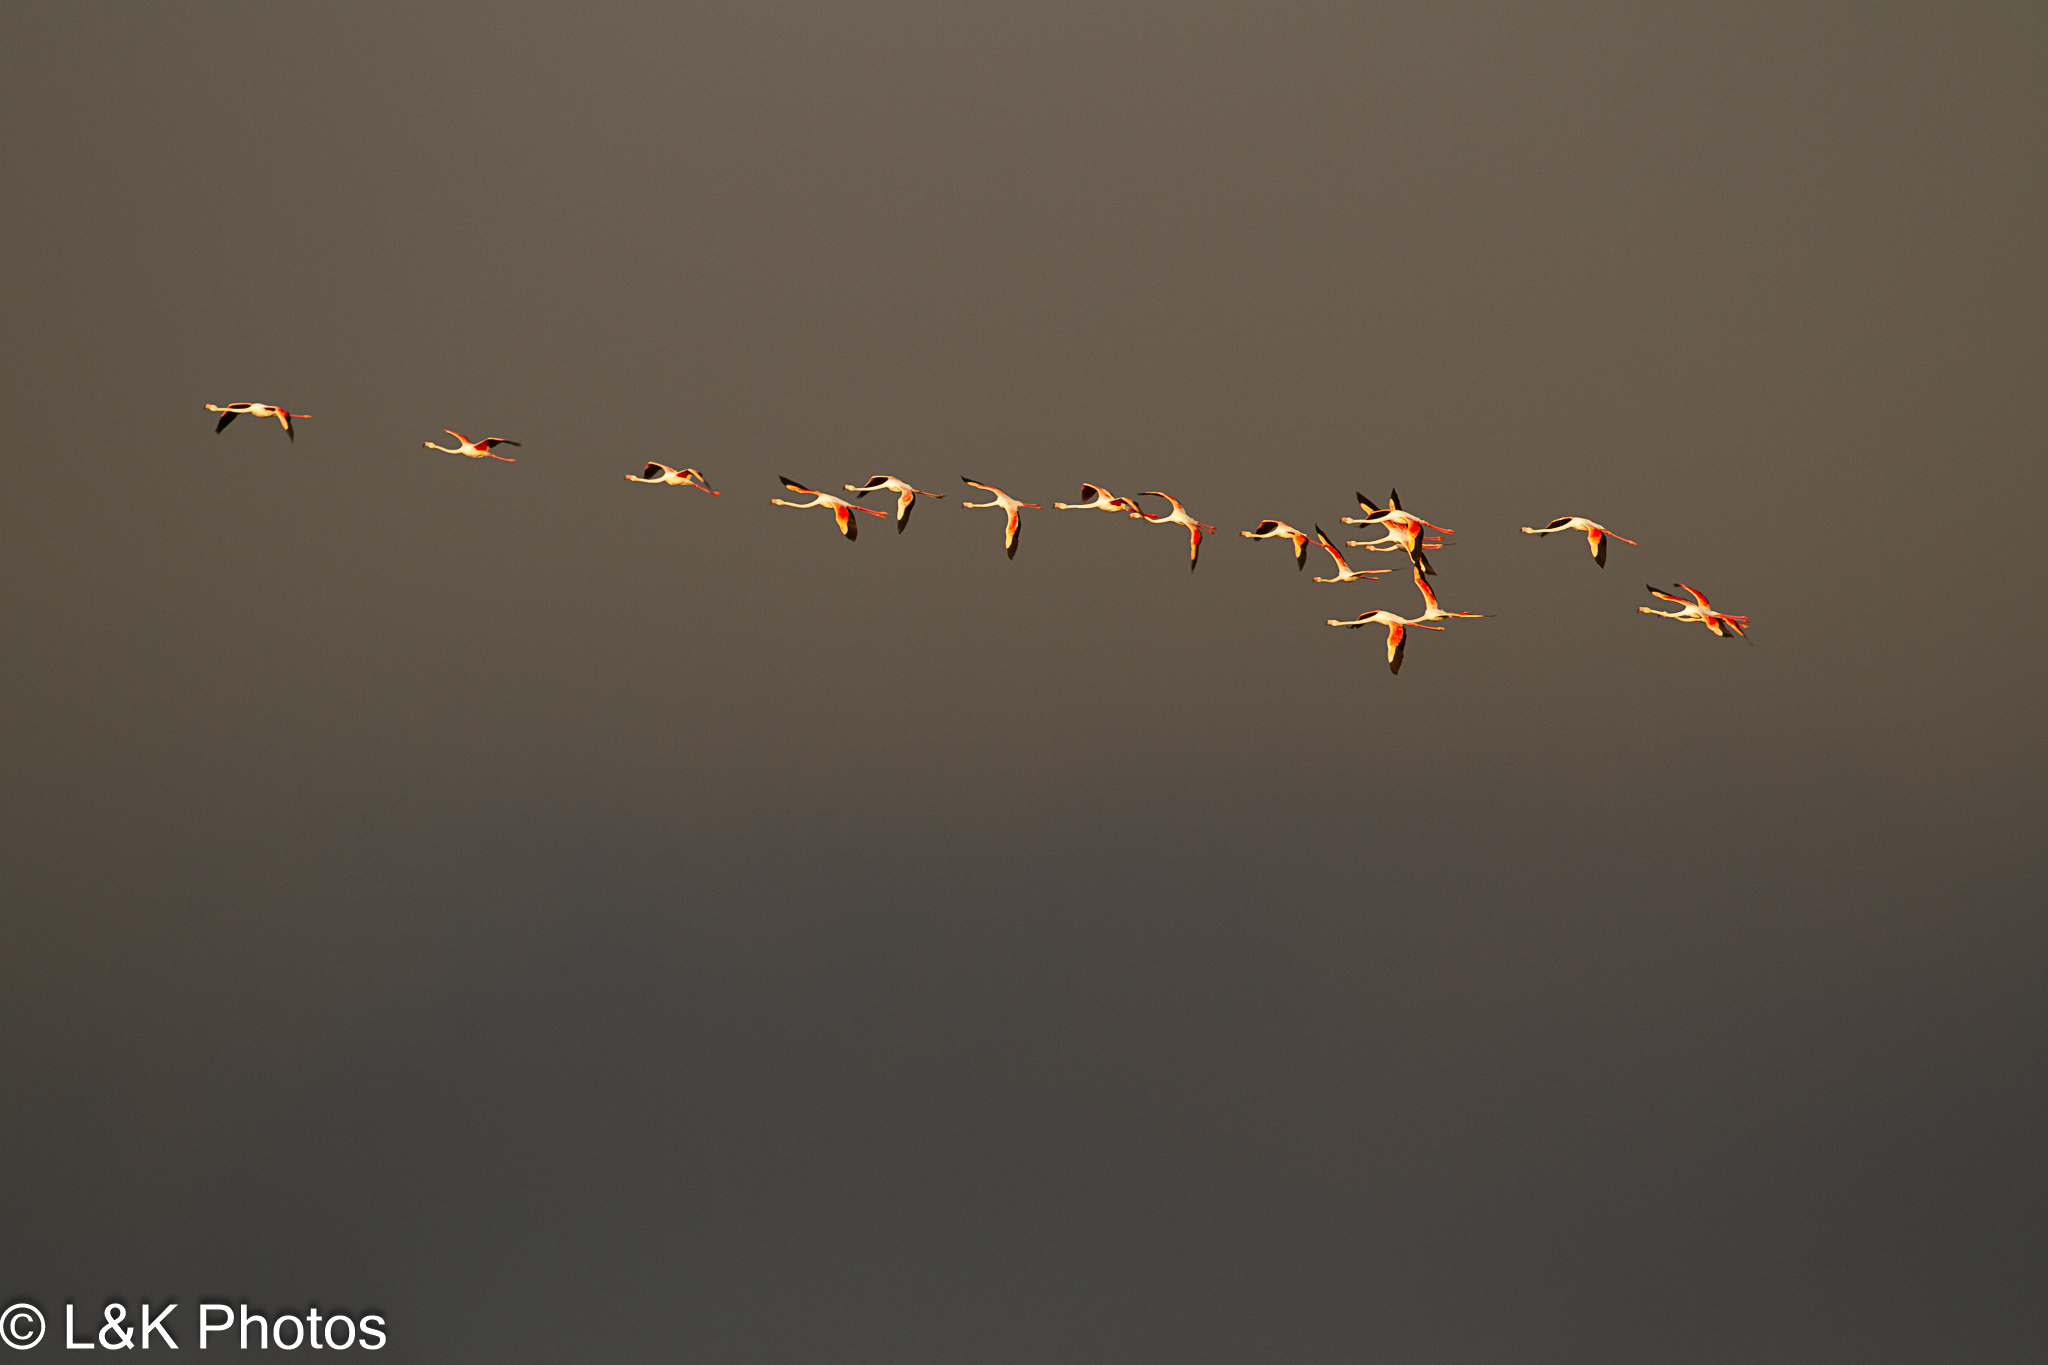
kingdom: Animalia
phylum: Chordata
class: Aves
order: Phoenicopteriformes
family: Phoenicopteridae
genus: Phoenicopterus
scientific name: Phoenicopterus roseus
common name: Greater flamingo
